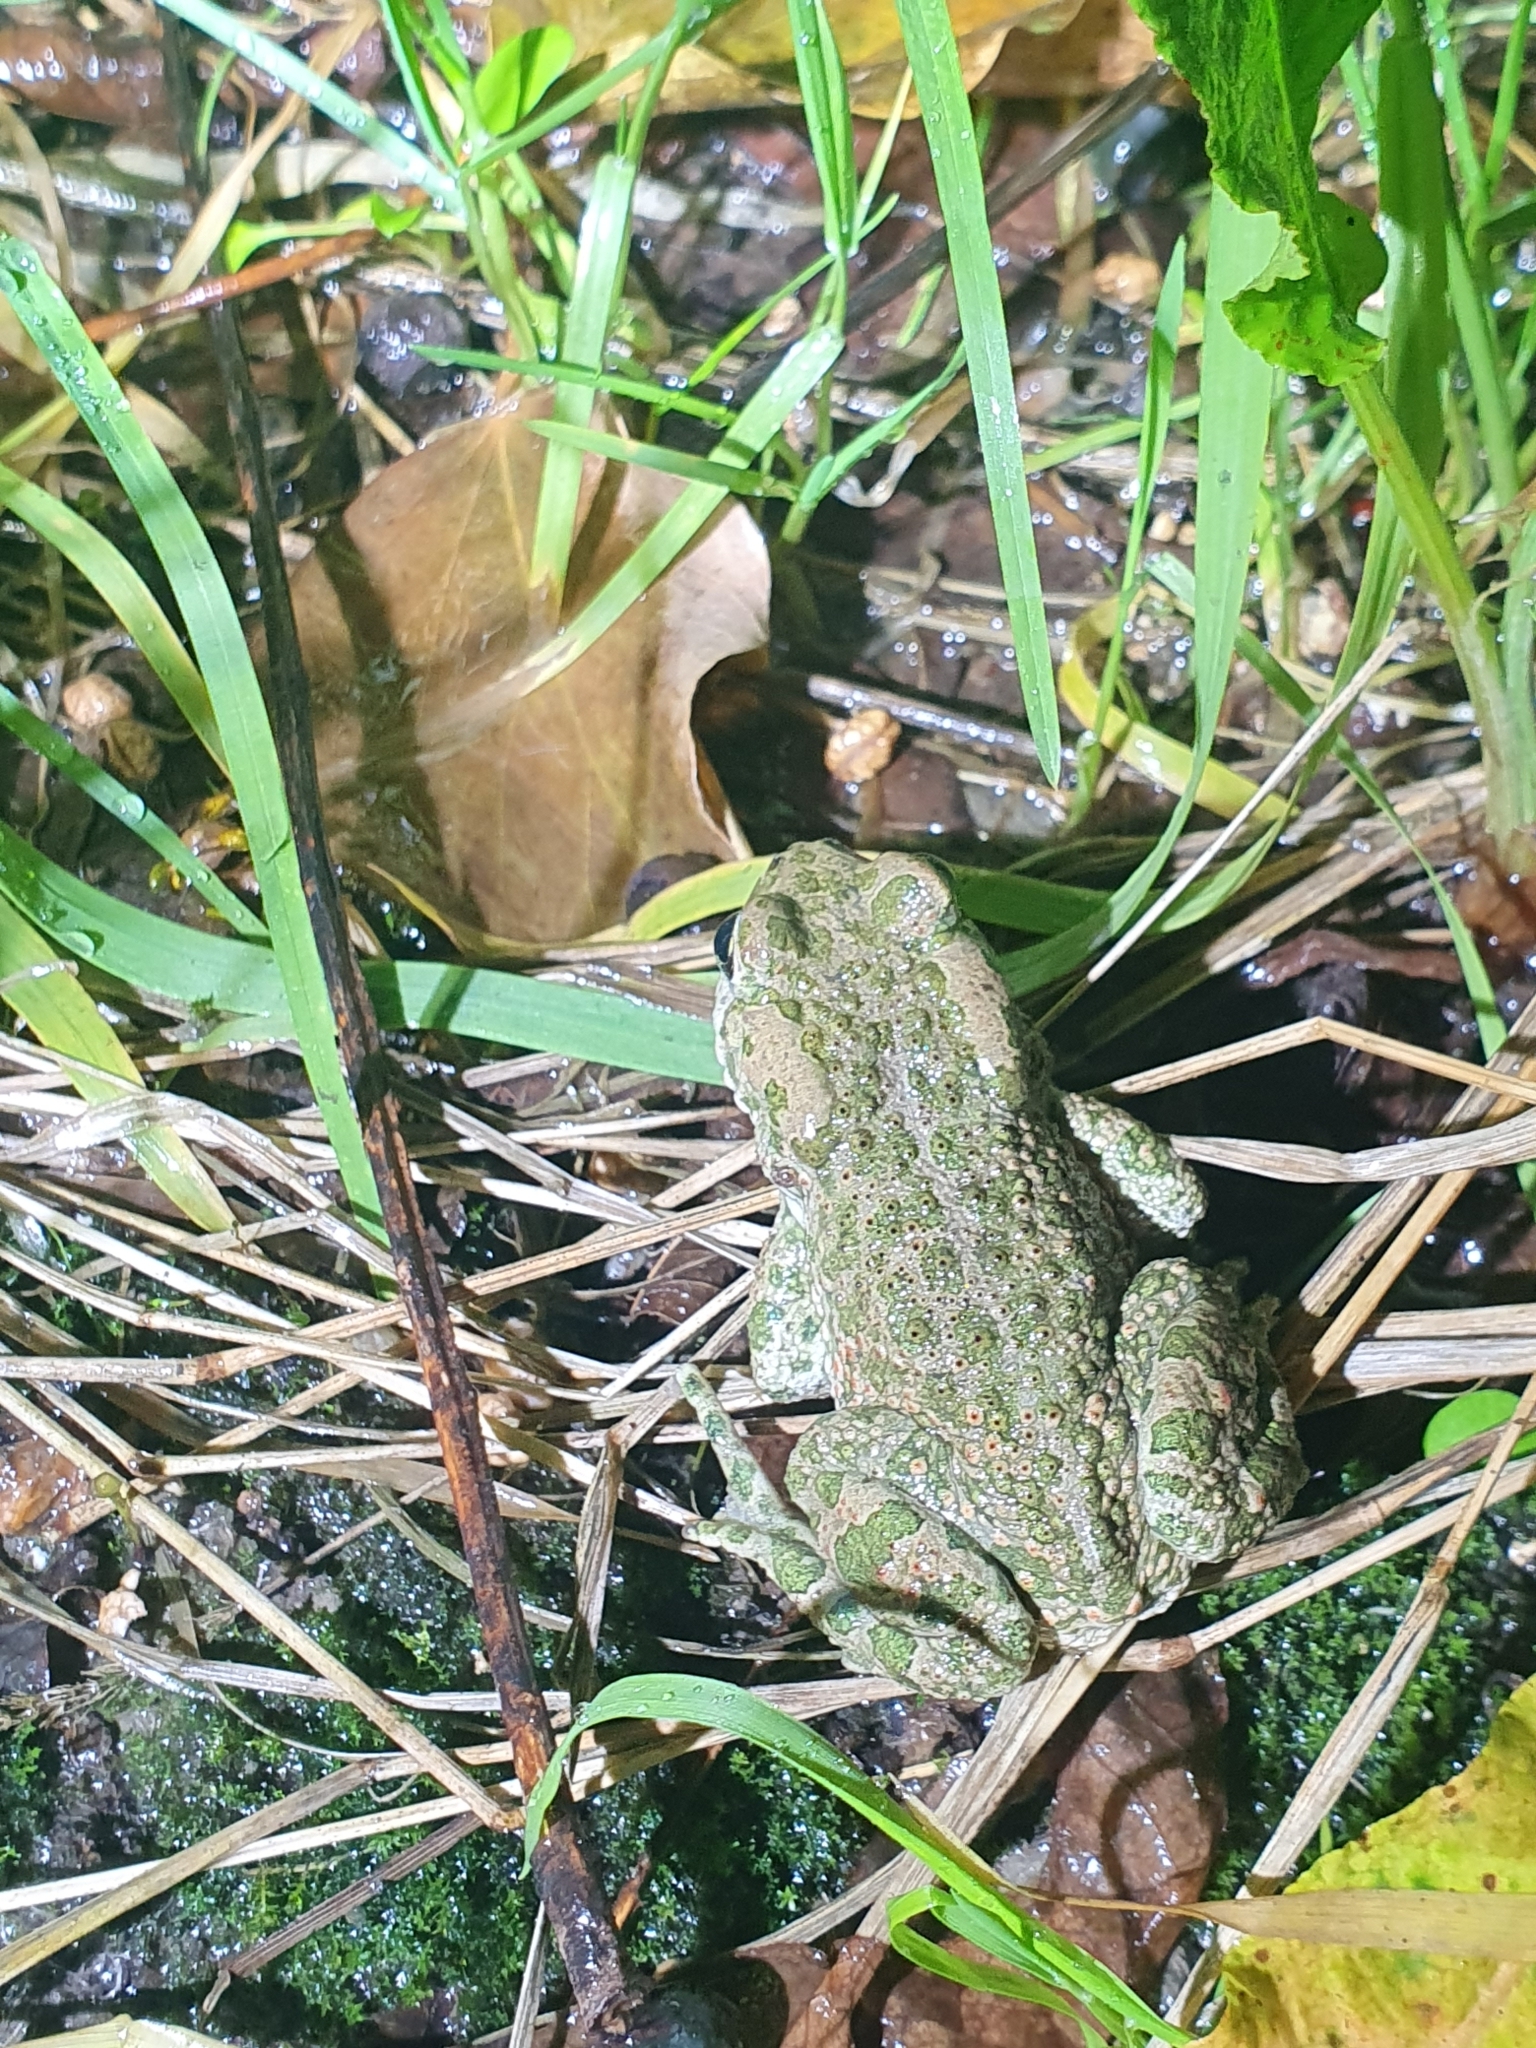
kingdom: Animalia
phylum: Chordata
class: Amphibia
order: Anura
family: Bufonidae
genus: Bufotes
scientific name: Bufotes viridis
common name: European green toad
